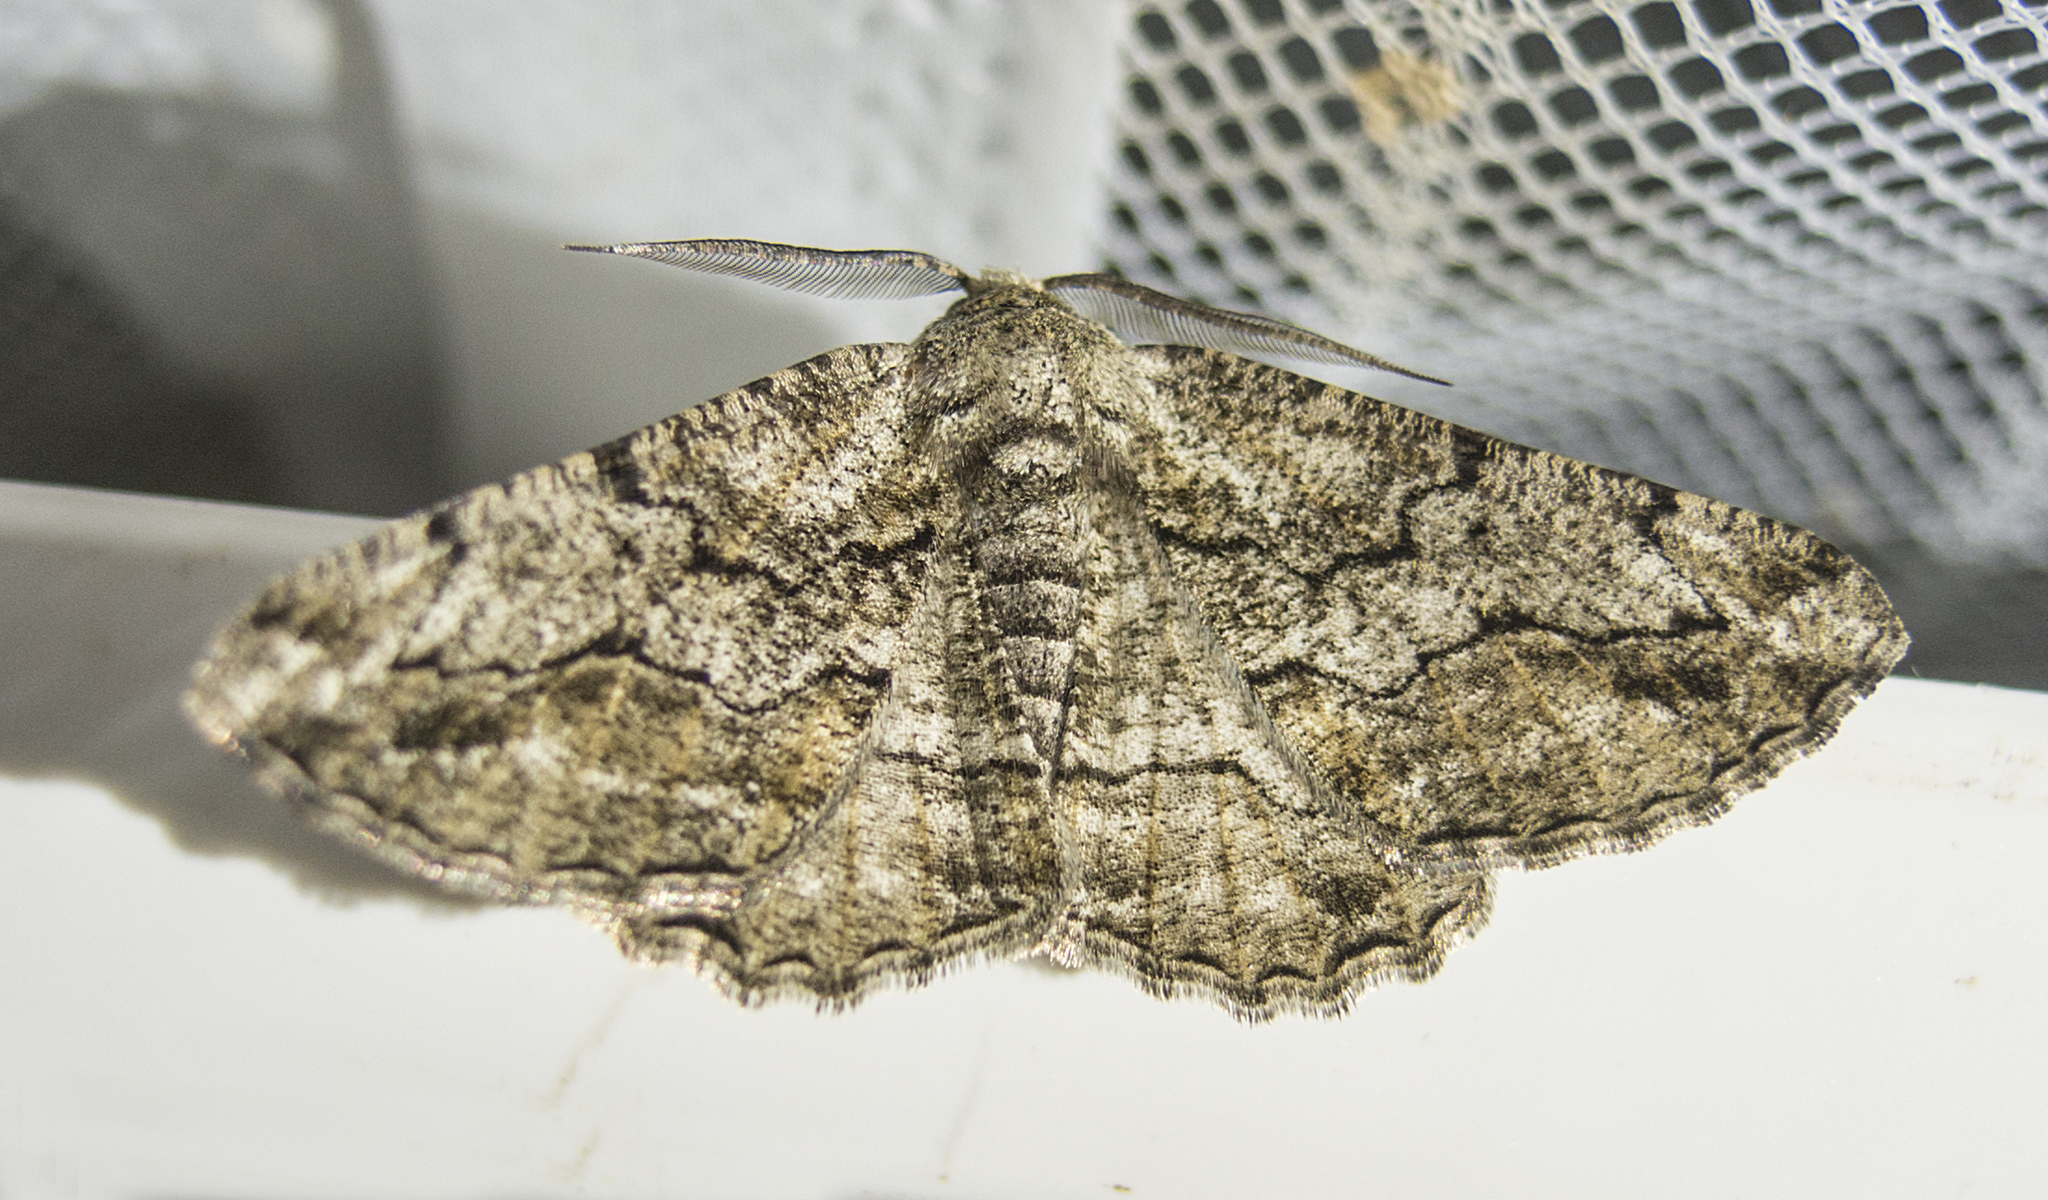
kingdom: Animalia
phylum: Arthropoda
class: Insecta
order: Lepidoptera
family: Geometridae
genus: Synopsia
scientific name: Synopsia sociaria
